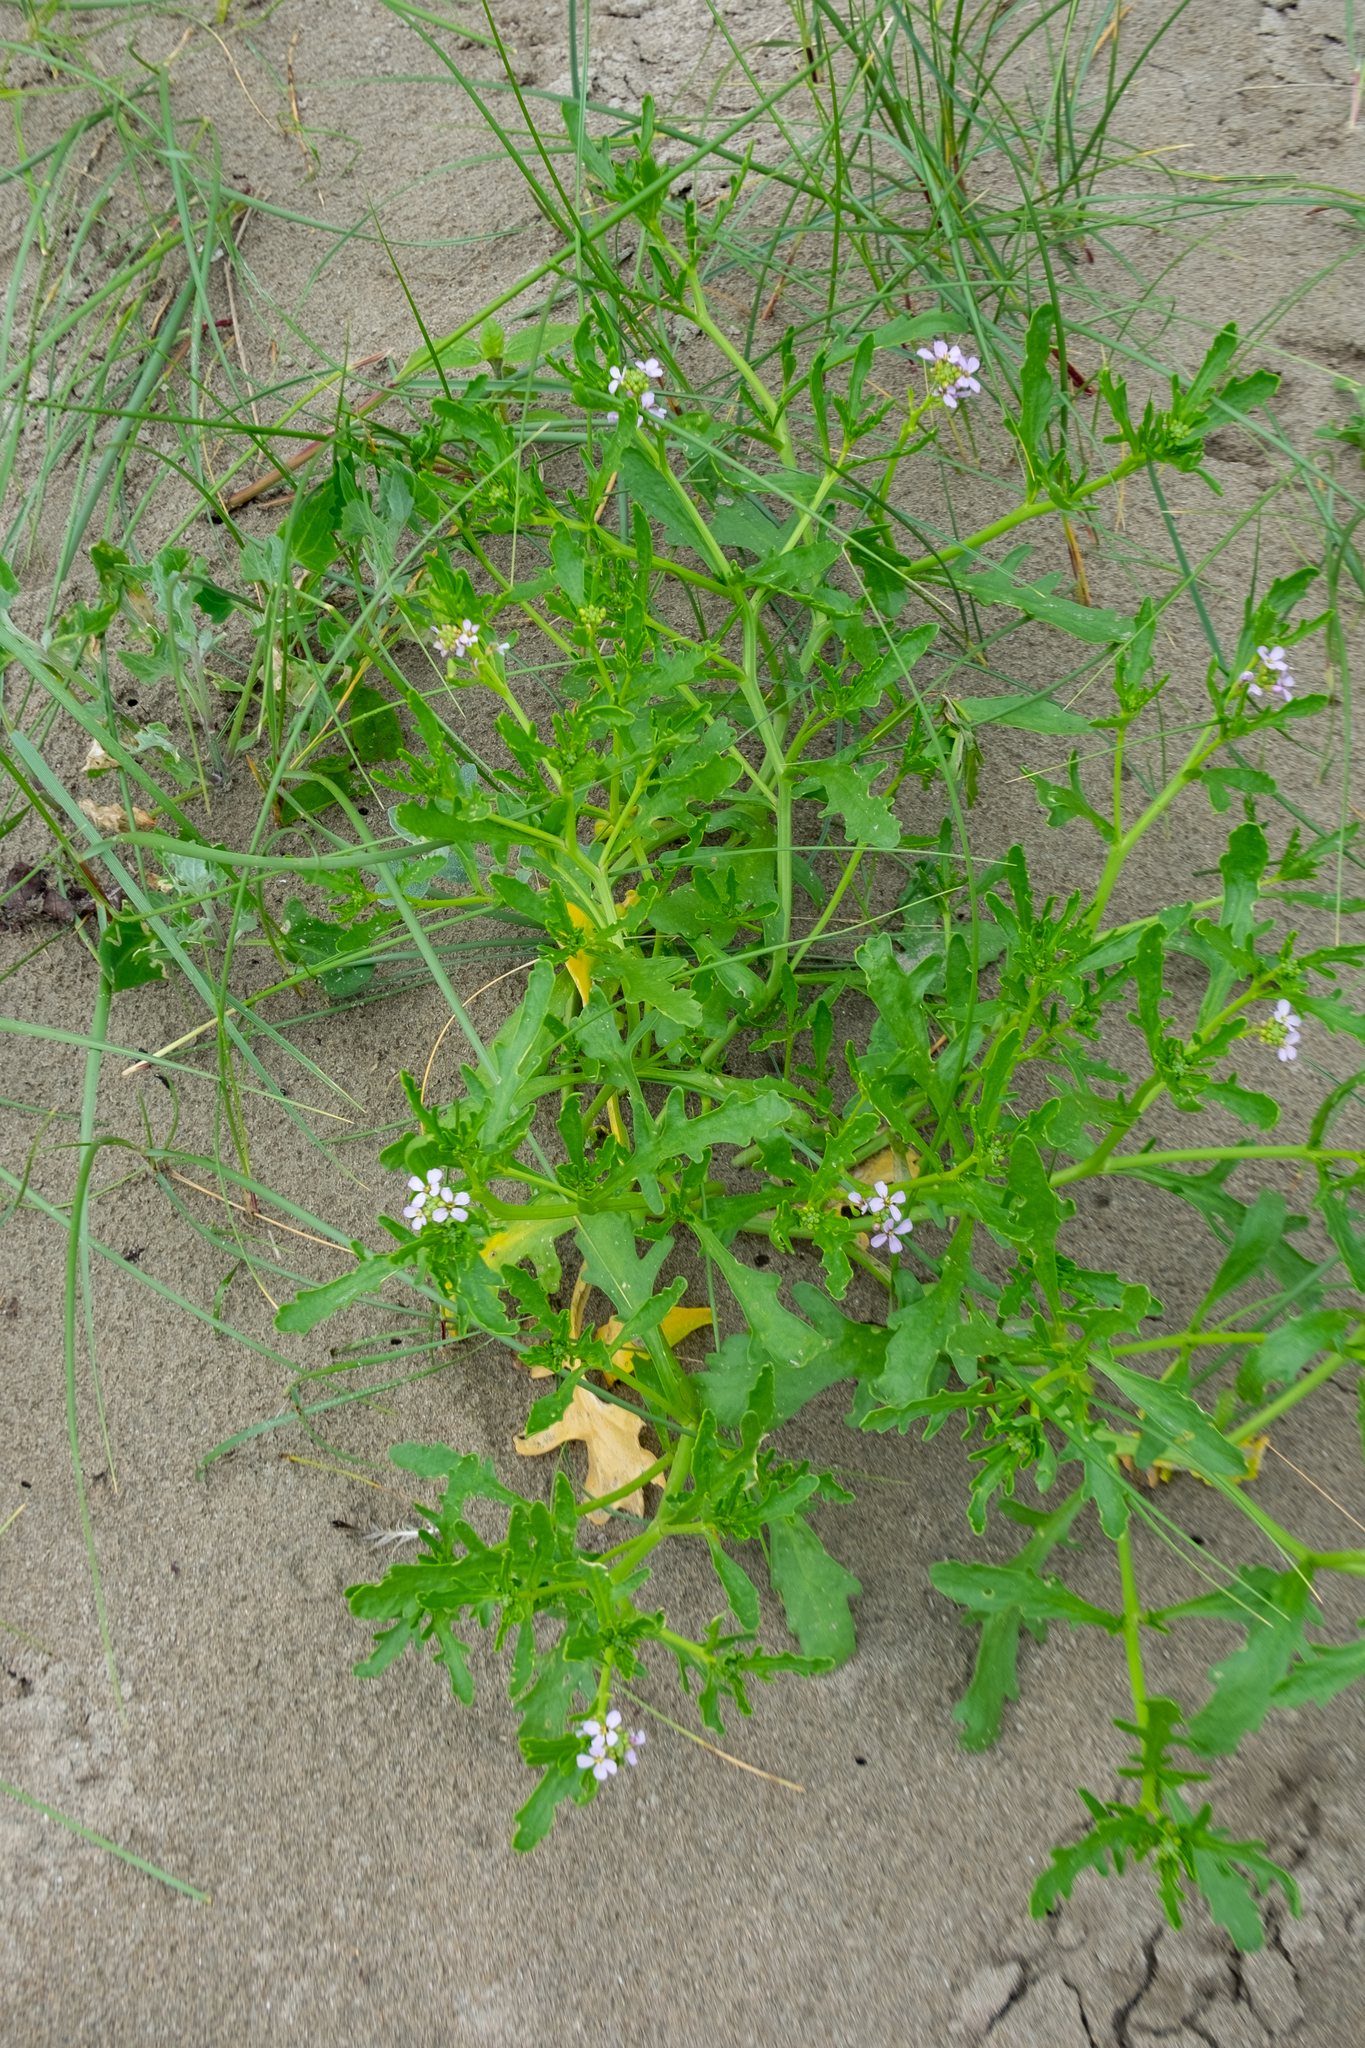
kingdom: Plantae
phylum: Tracheophyta
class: Magnoliopsida
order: Brassicales
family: Brassicaceae
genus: Cakile
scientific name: Cakile maritima
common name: Sea rocket
